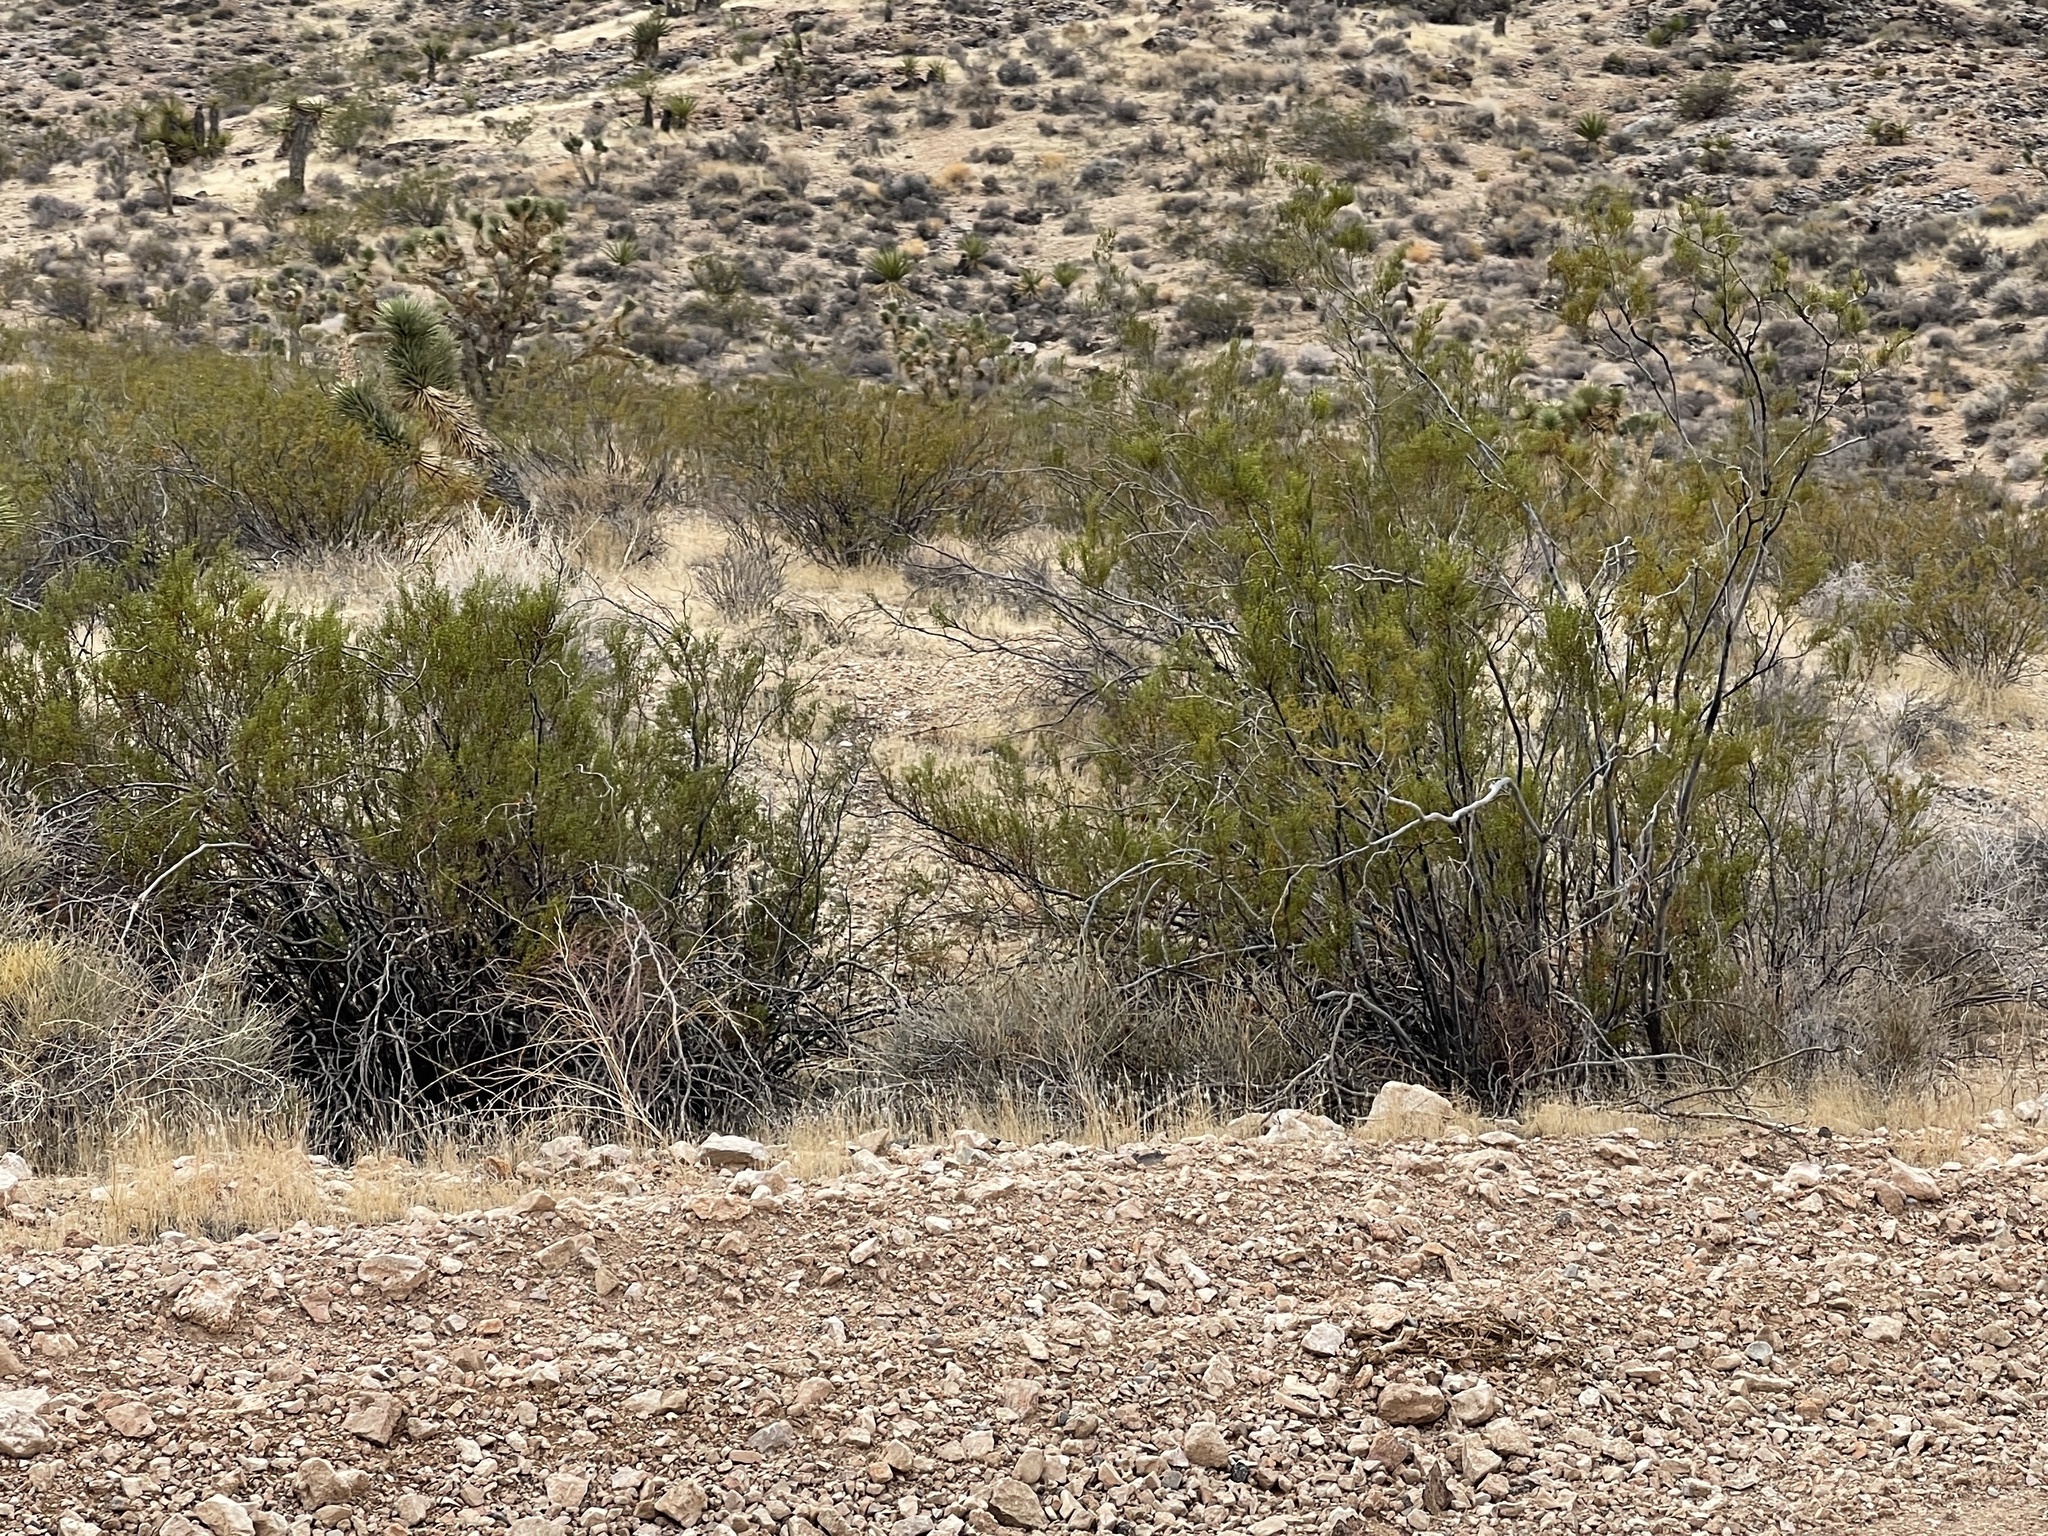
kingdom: Plantae
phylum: Tracheophyta
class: Magnoliopsida
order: Zygophyllales
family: Zygophyllaceae
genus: Larrea
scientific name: Larrea tridentata
